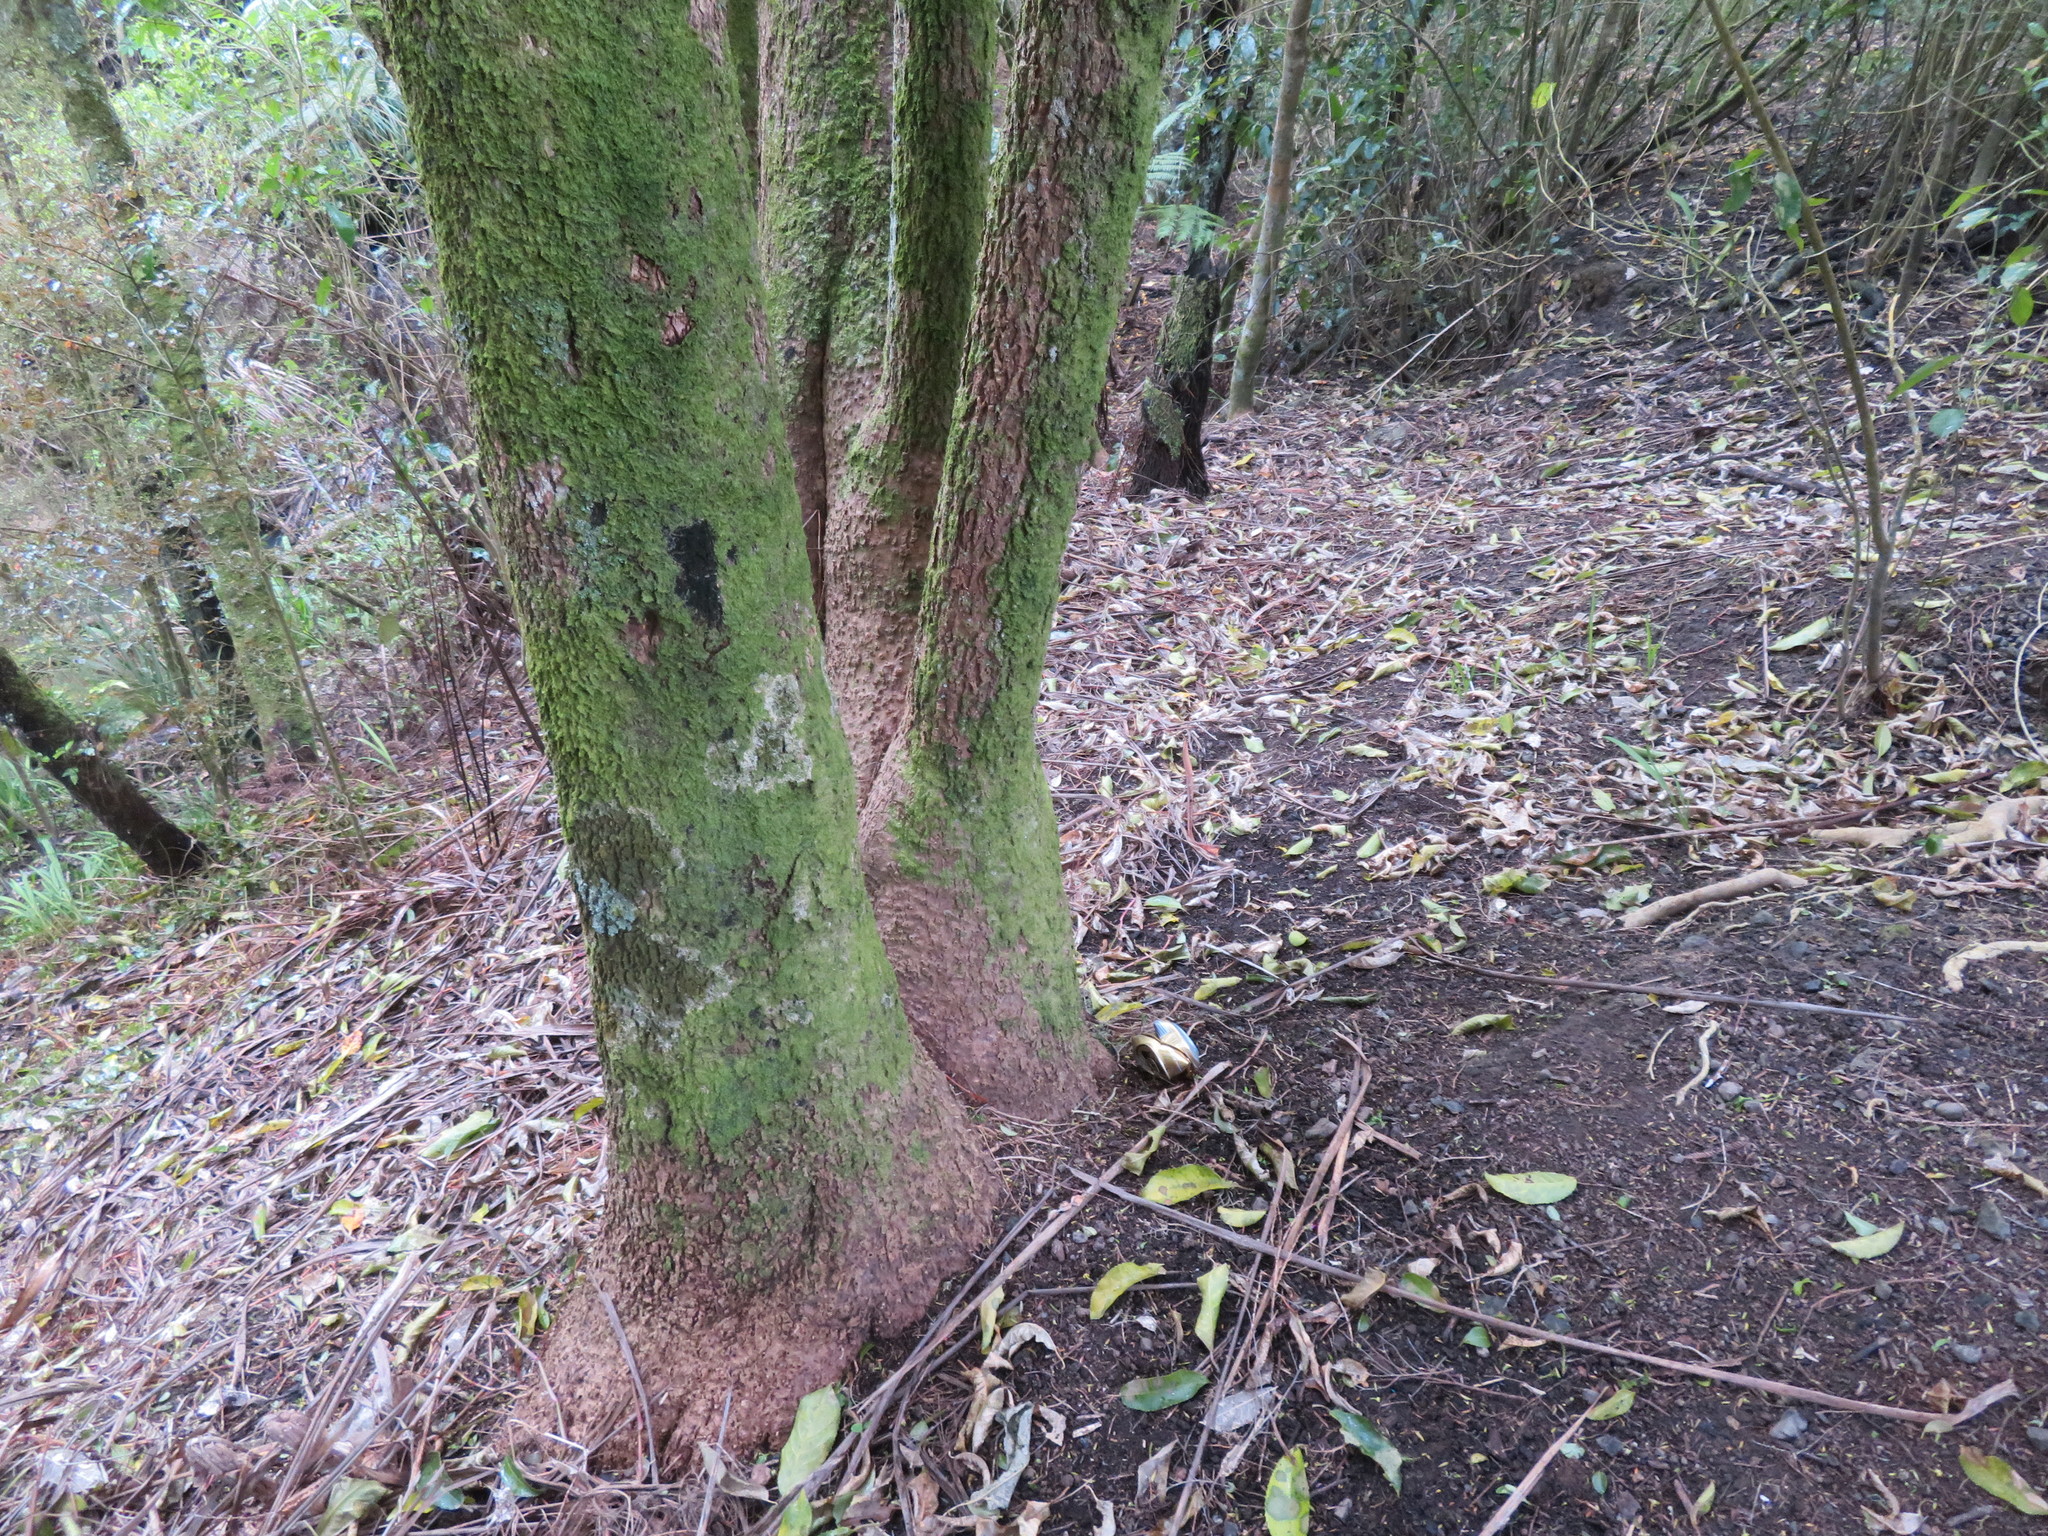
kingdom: Plantae
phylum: Tracheophyta
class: Liliopsida
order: Asparagales
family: Asparagaceae
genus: Cordyline
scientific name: Cordyline australis
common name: Cabbage-palm
